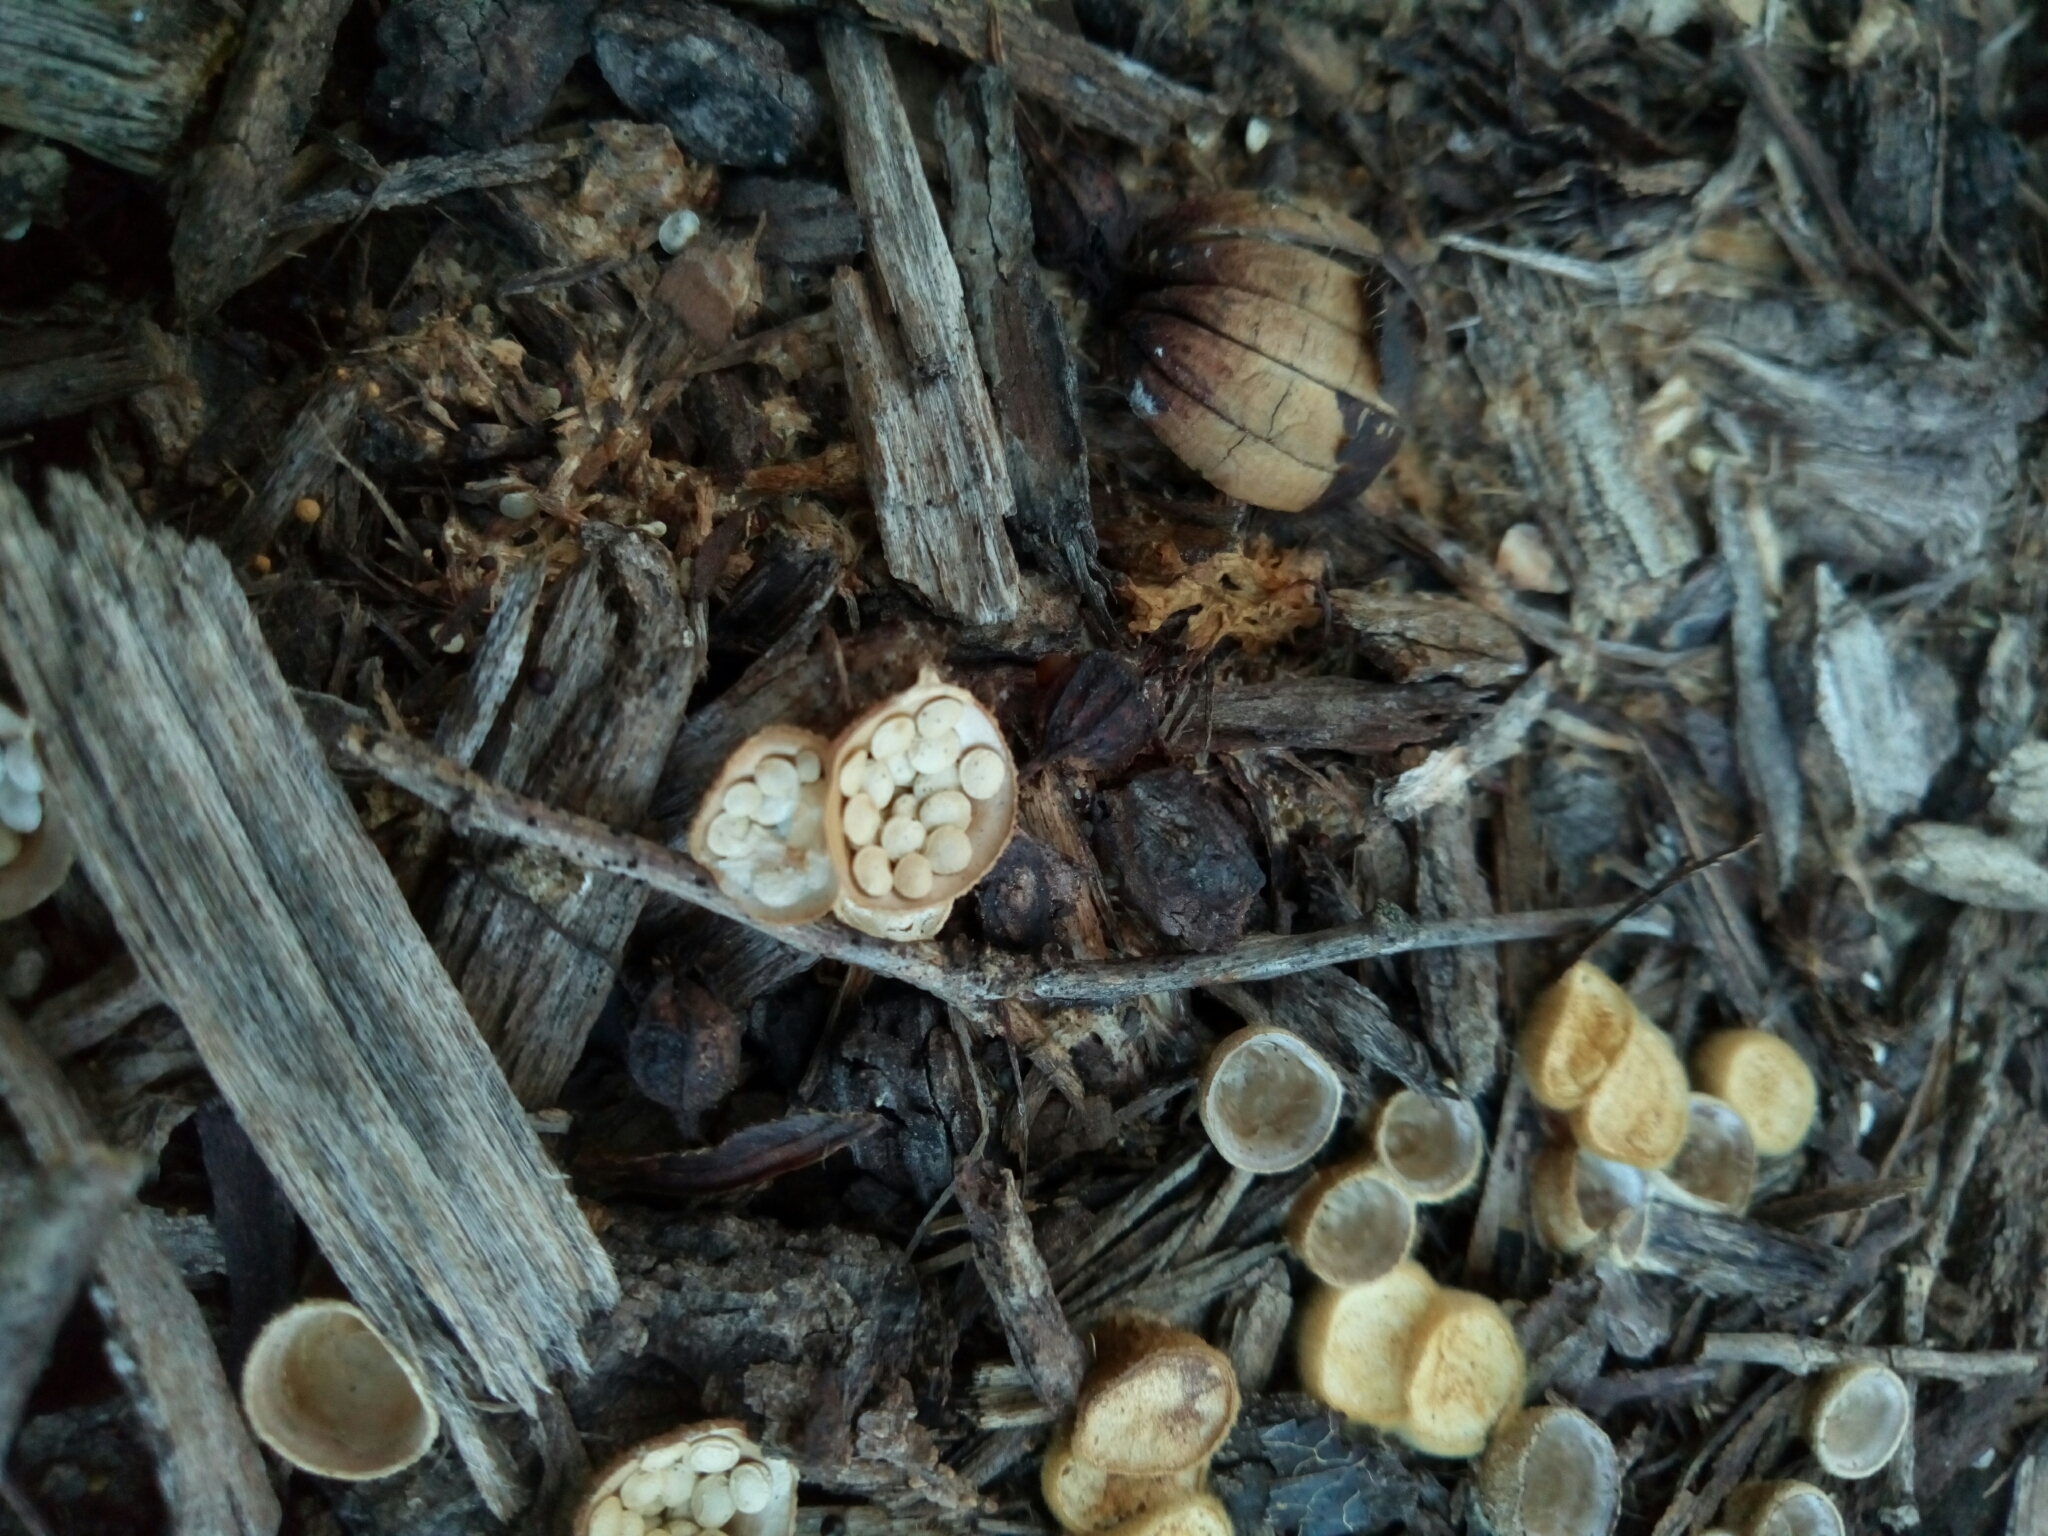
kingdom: Fungi
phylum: Basidiomycota
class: Agaricomycetes
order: Agaricales
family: Nidulariaceae
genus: Crucibulum
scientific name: Crucibulum laeve
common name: Common bird's nest
